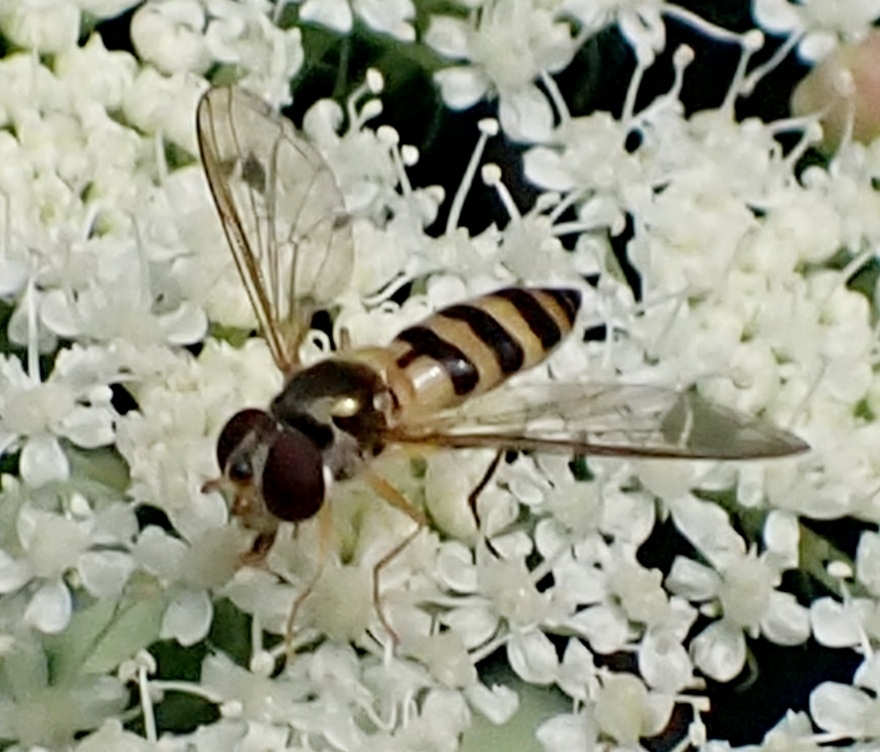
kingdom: Animalia
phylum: Arthropoda
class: Insecta
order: Diptera
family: Syrphidae
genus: Meliscaeva
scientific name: Meliscaeva cinctella
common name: American thintail fly
